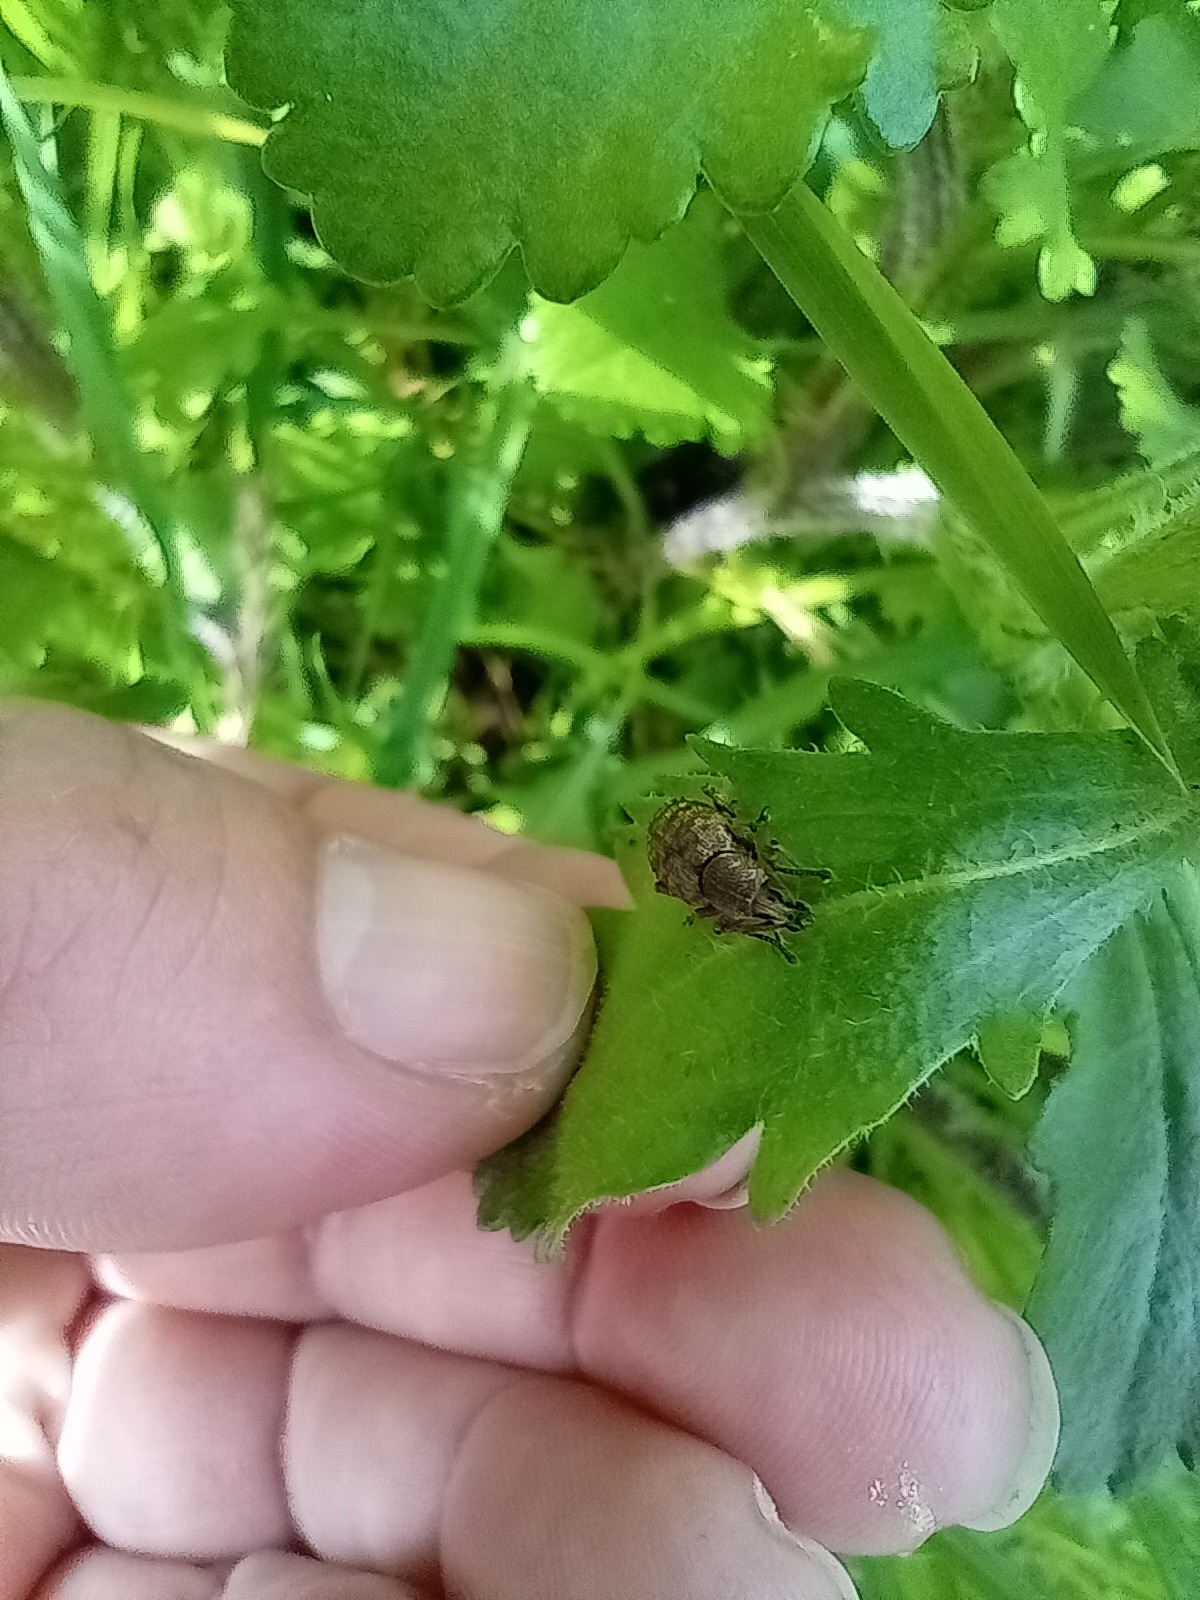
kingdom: Animalia
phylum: Arthropoda
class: Insecta
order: Coleoptera
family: Curculionidae
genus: Otiorhynchus
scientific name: Otiorhynchus singularis
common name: Clay-coloured weevil
